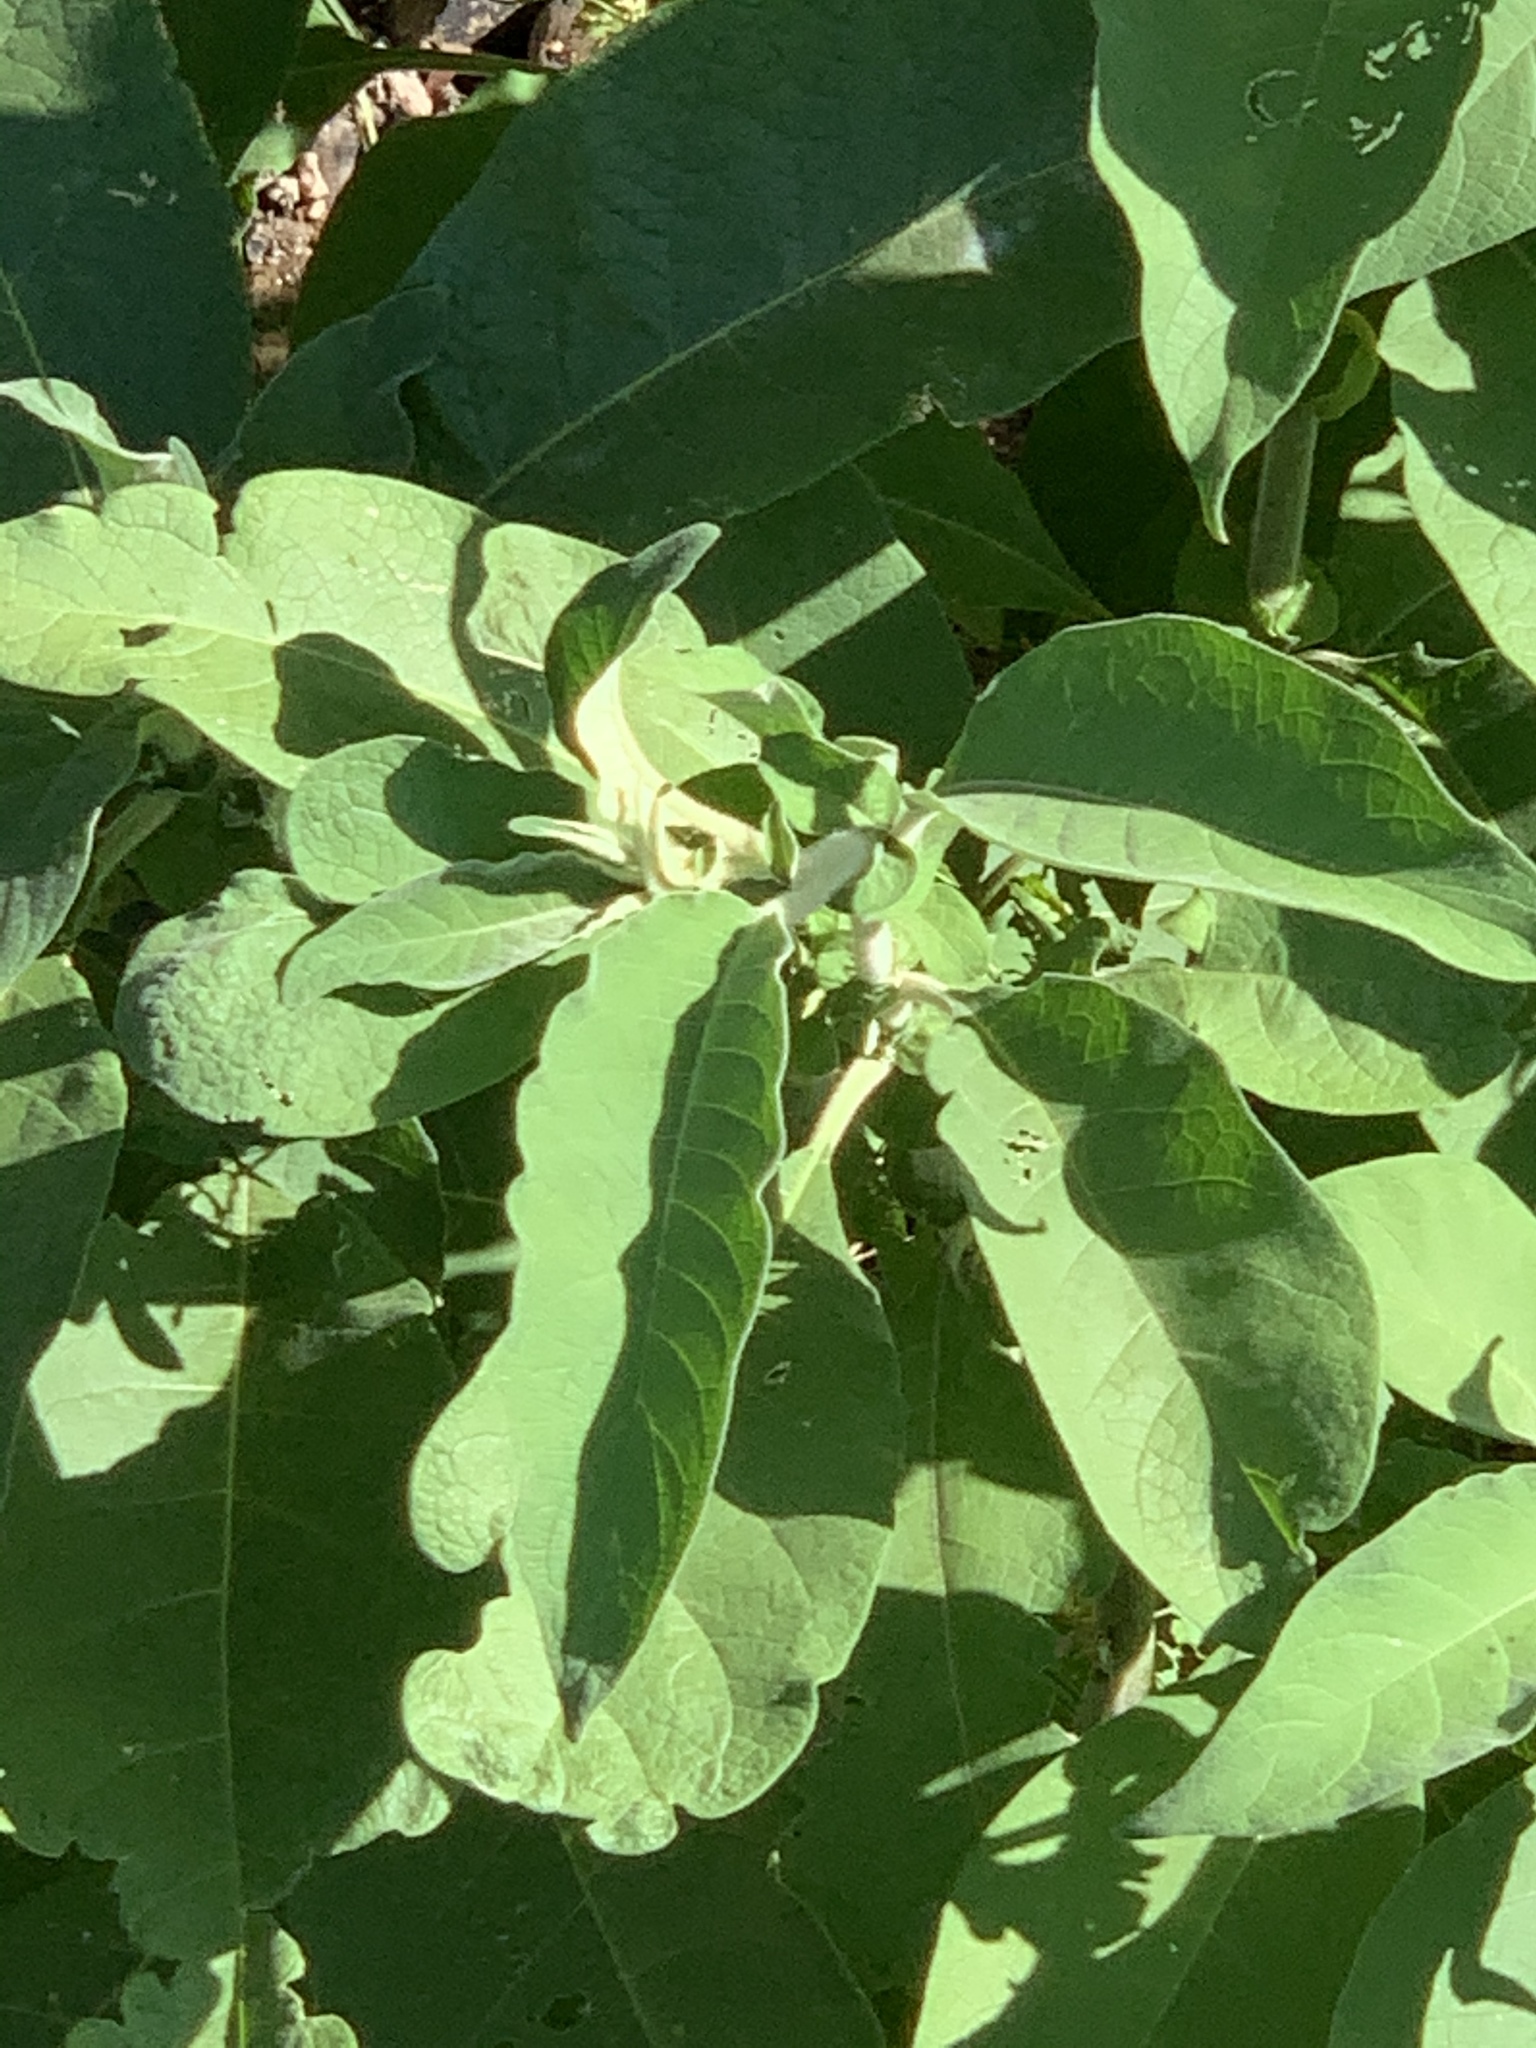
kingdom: Plantae
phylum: Tracheophyta
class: Magnoliopsida
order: Solanales
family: Solanaceae
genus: Solanum
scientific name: Solanum mauritianum
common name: Earleaf nightshade
